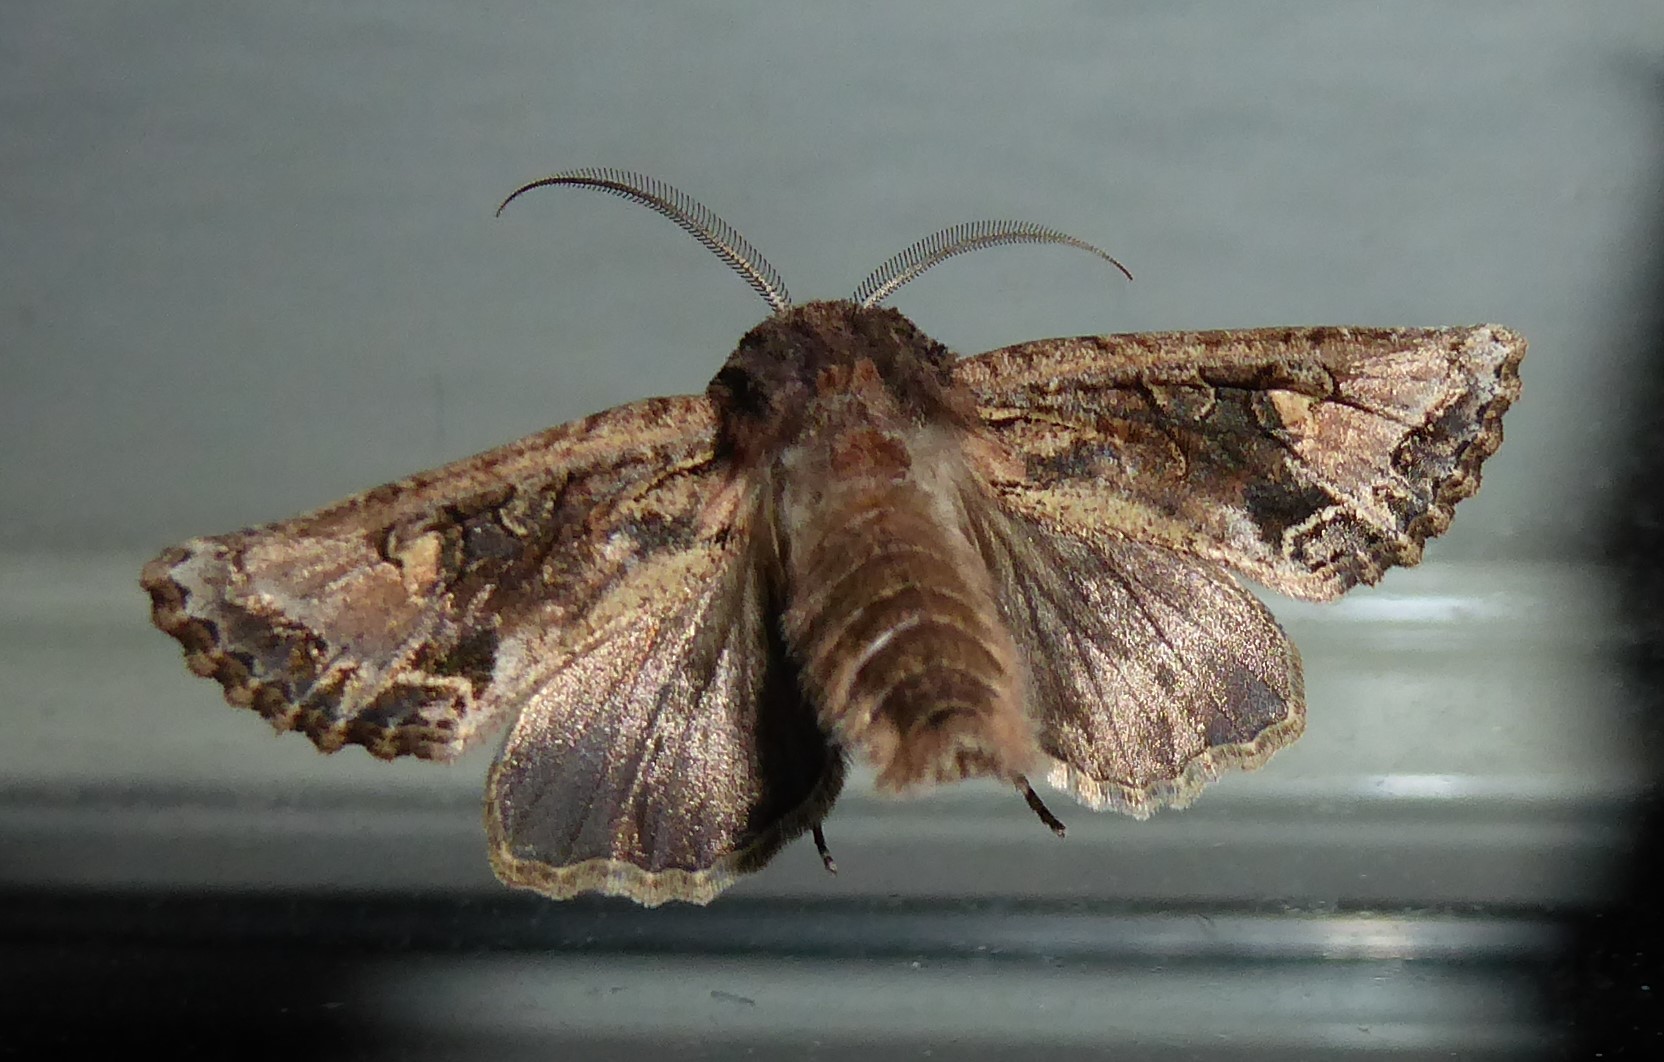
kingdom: Animalia
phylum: Arthropoda
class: Insecta
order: Lepidoptera
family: Noctuidae
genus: Ichneutica
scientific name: Ichneutica
